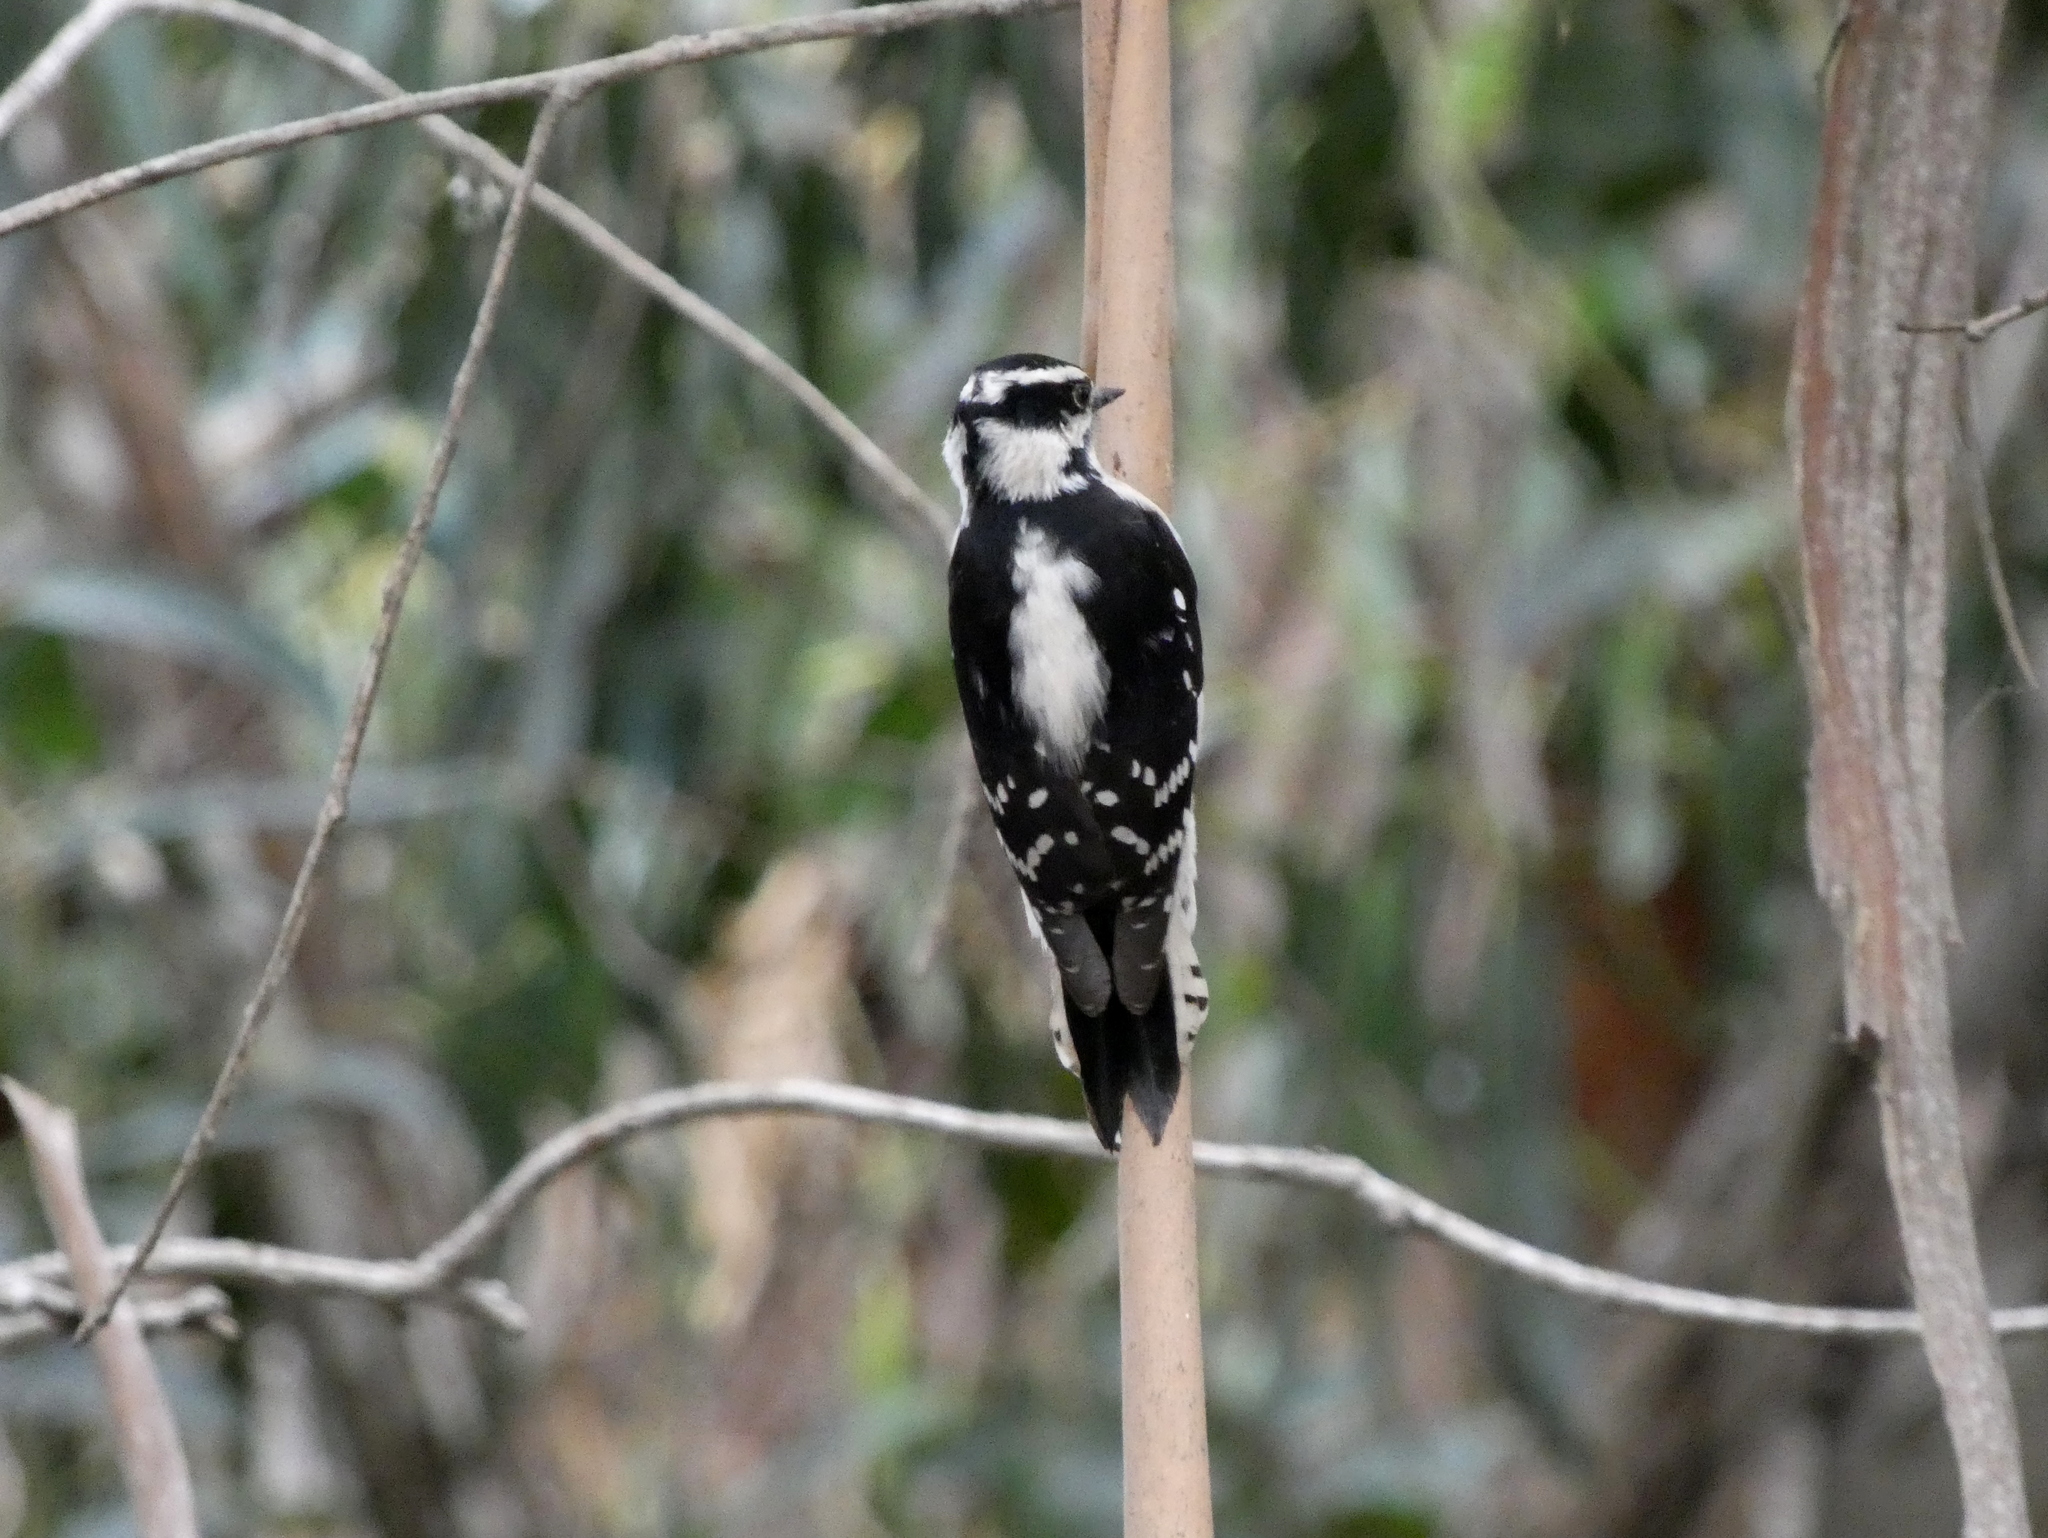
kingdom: Animalia
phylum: Chordata
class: Aves
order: Piciformes
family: Picidae
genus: Dryobates
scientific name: Dryobates pubescens
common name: Downy woodpecker
